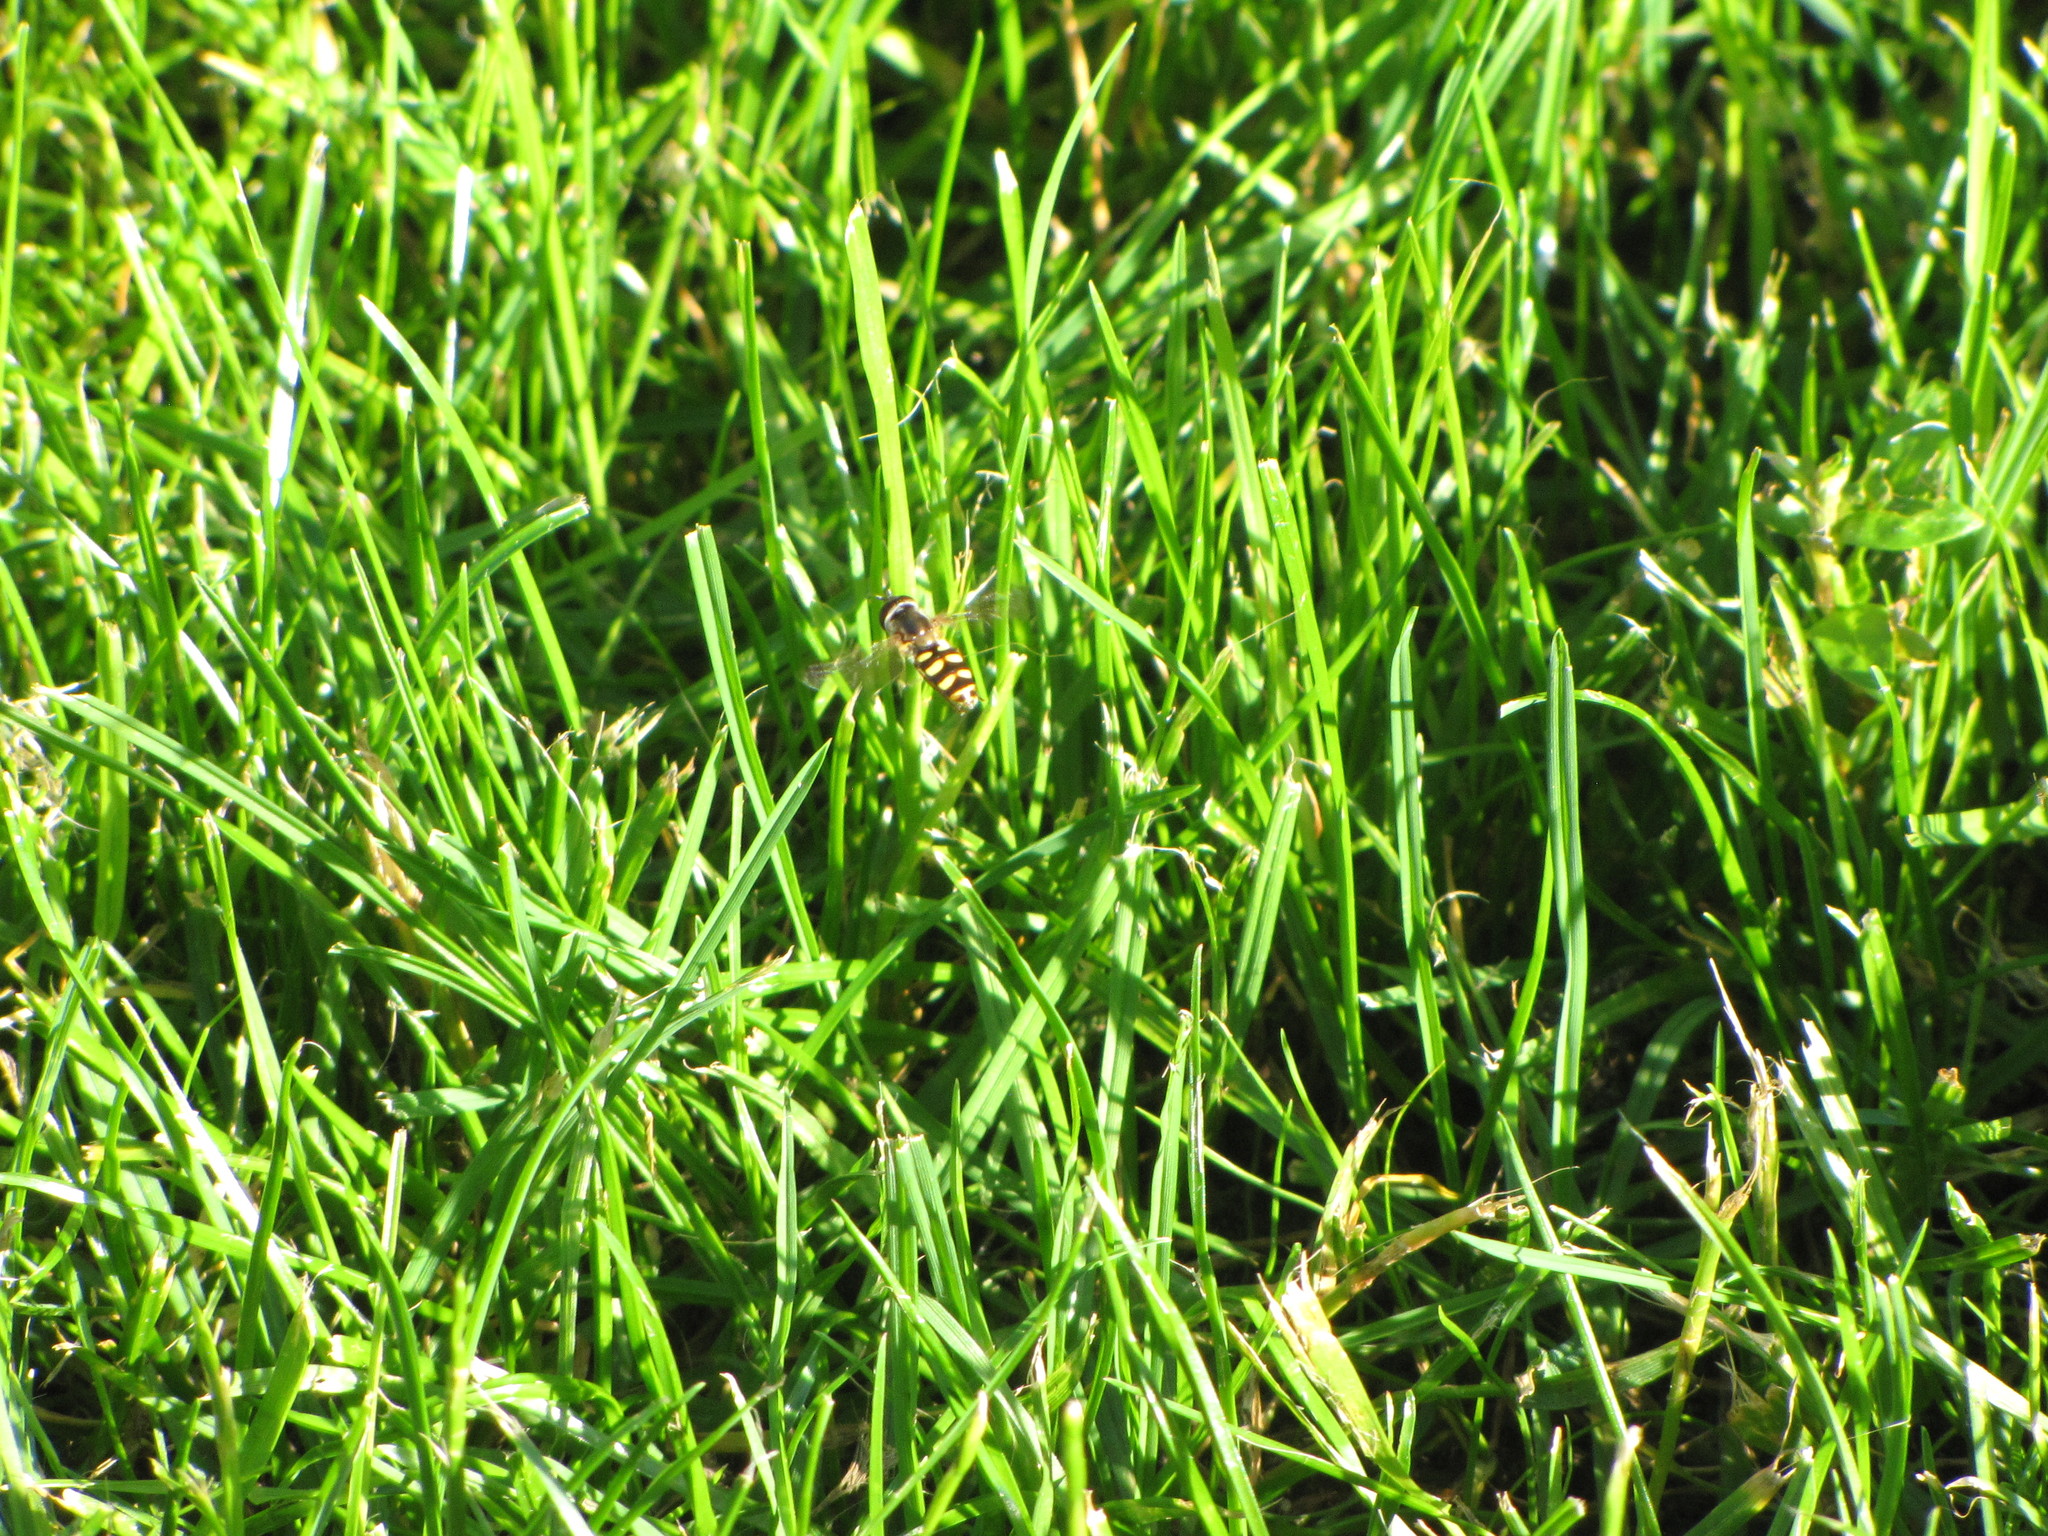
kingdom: Animalia
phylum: Arthropoda
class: Insecta
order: Diptera
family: Syrphidae
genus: Eupeodes
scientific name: Eupeodes fumipennis
